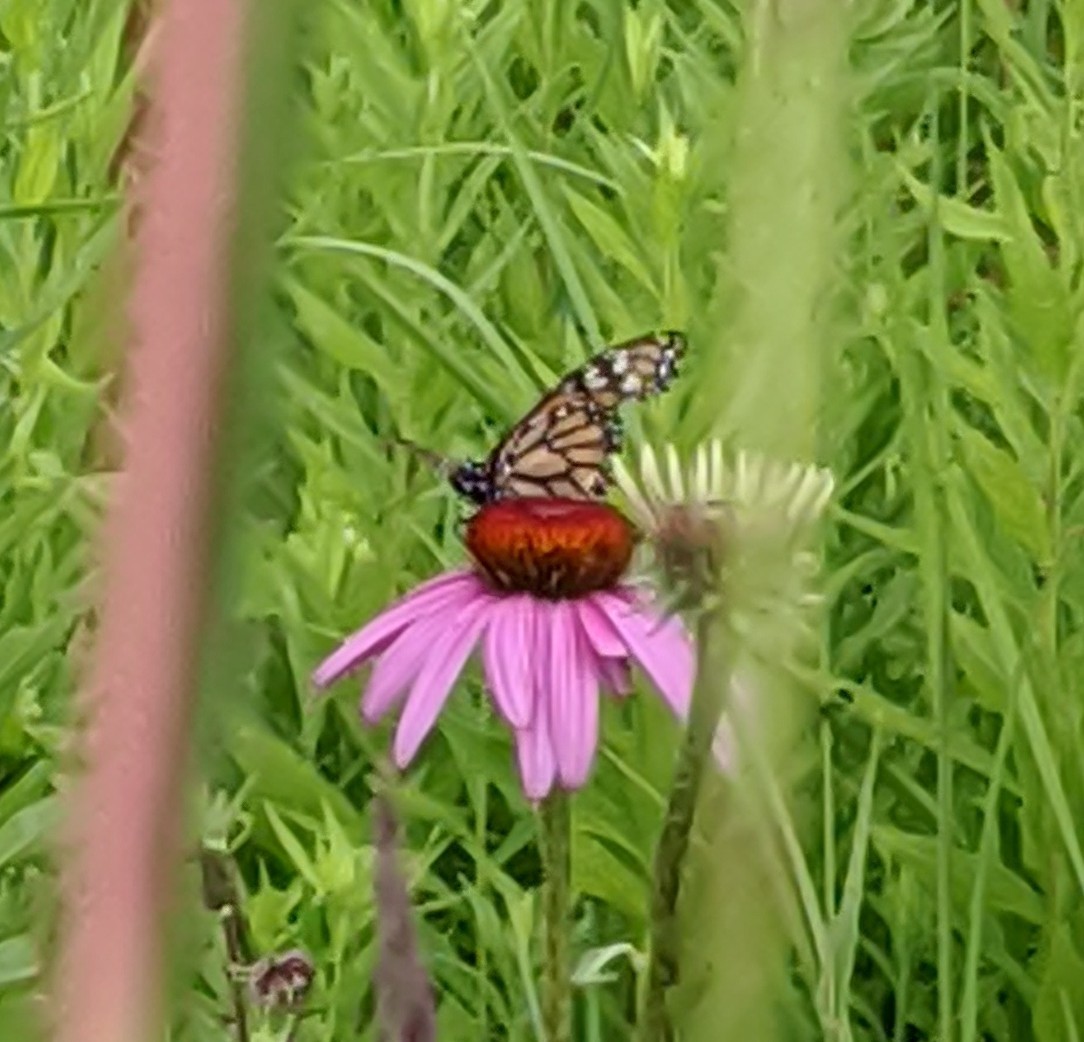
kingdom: Animalia
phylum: Arthropoda
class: Insecta
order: Lepidoptera
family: Nymphalidae
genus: Danaus
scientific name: Danaus plexippus
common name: Monarch
